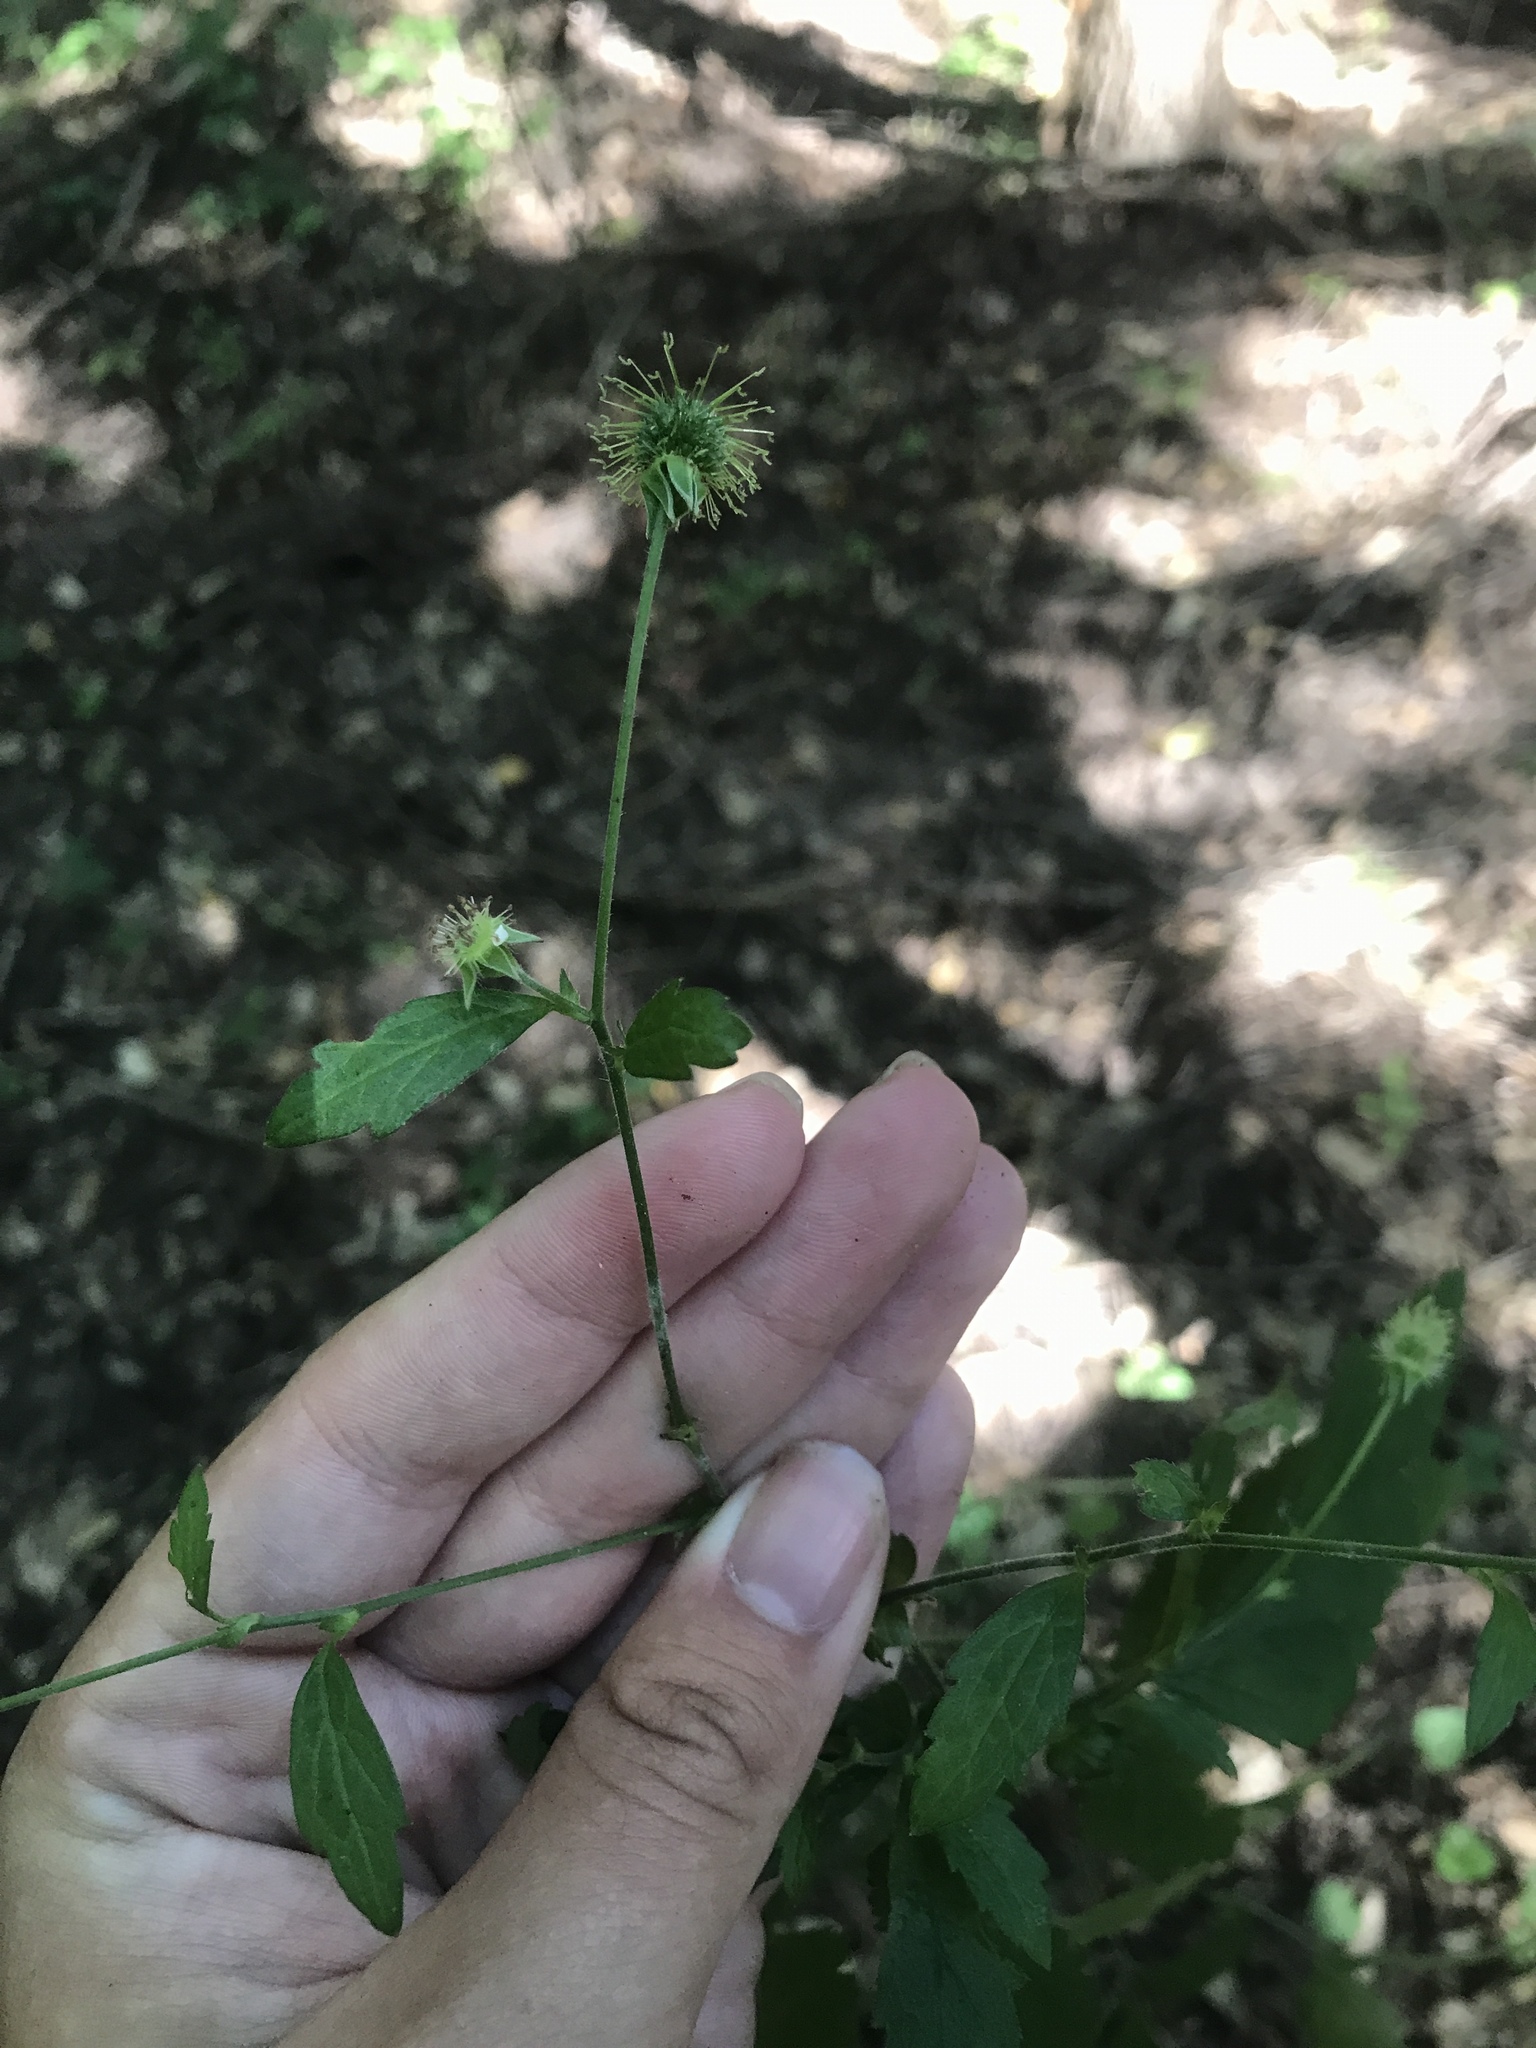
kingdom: Plantae
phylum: Tracheophyta
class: Magnoliopsida
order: Rosales
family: Rosaceae
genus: Geum
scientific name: Geum canadense
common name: White avens
